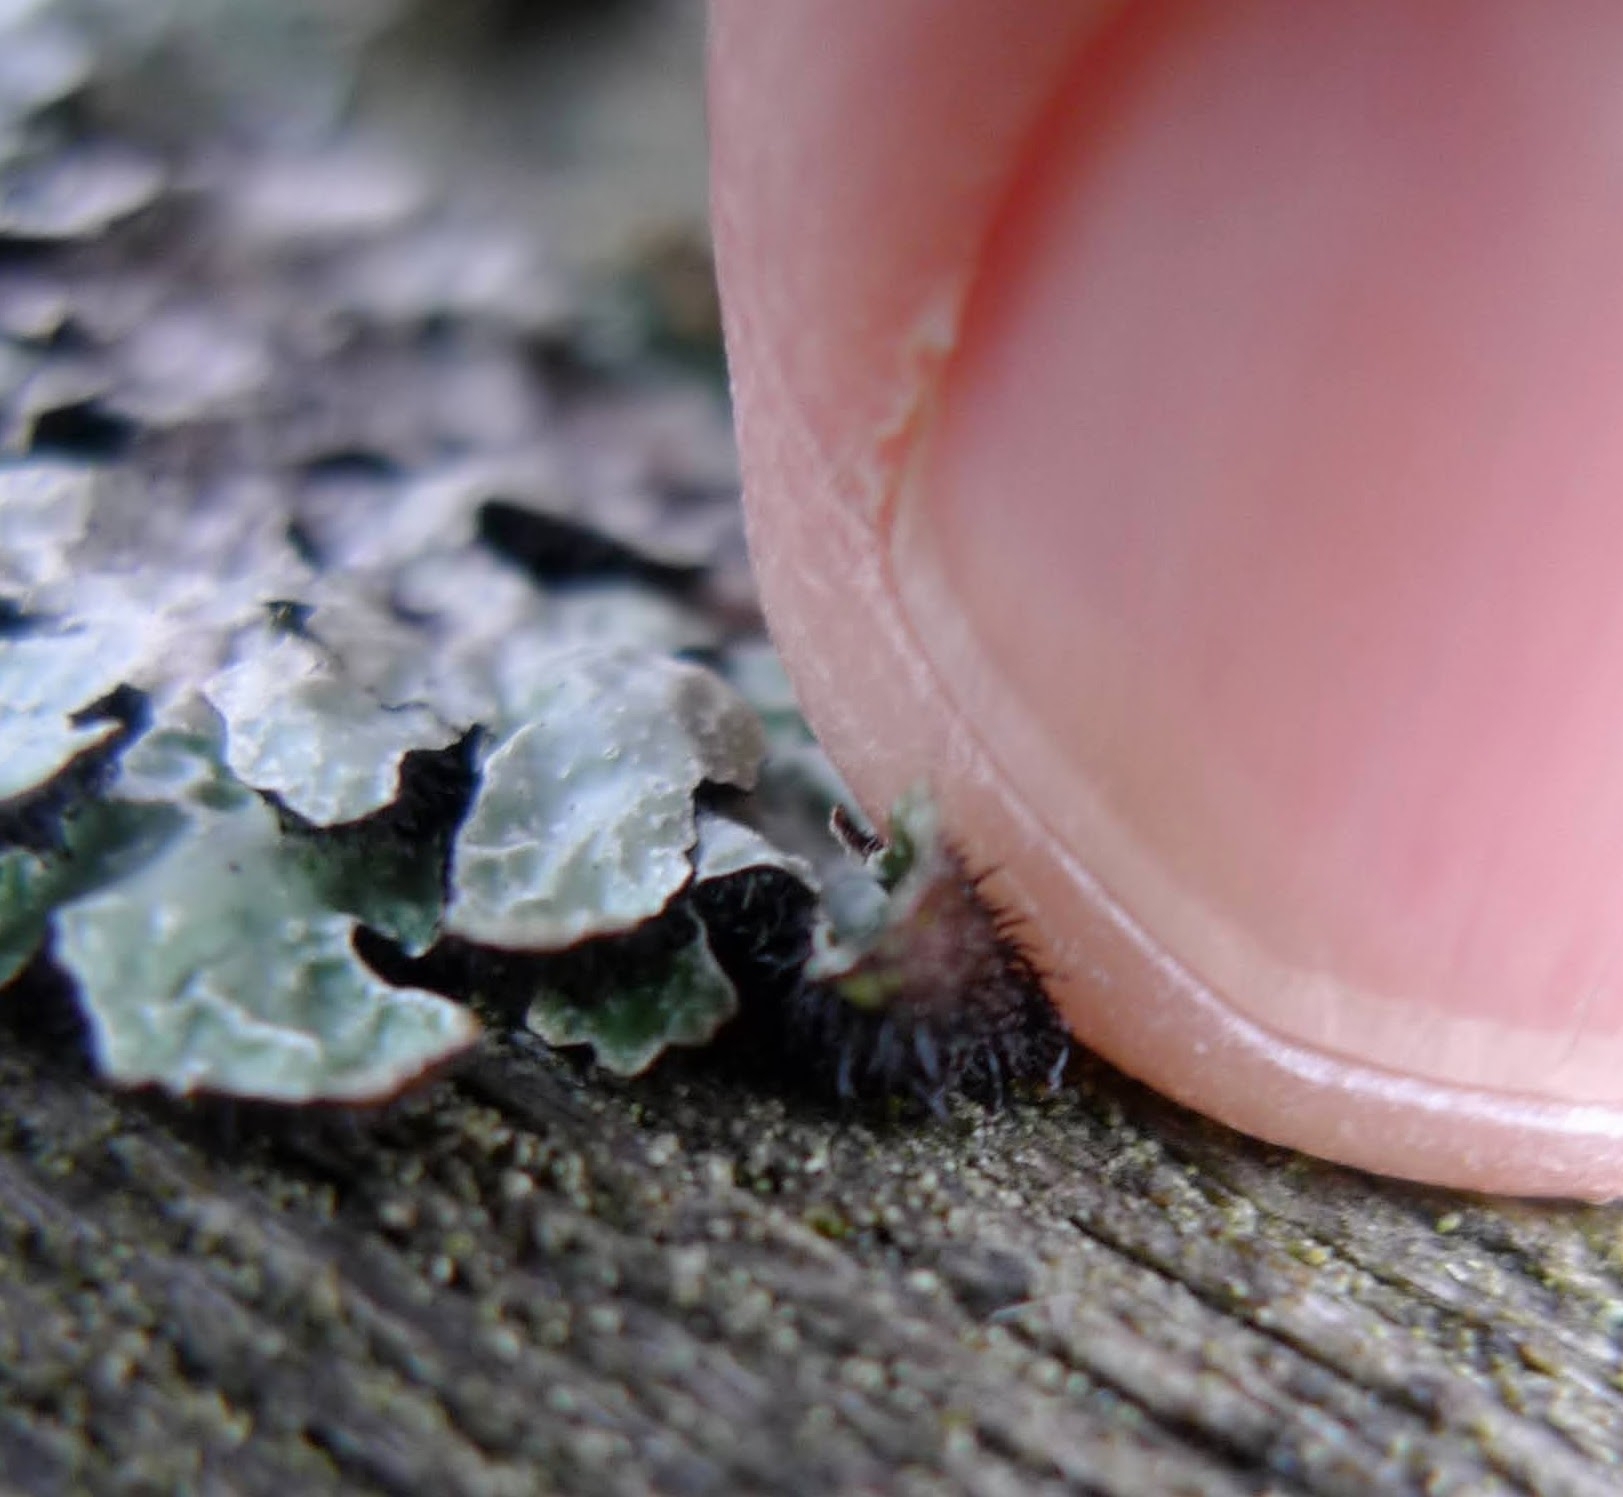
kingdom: Fungi
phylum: Ascomycota
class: Lecanoromycetes
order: Lecanorales
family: Parmeliaceae
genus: Parmelia
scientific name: Parmelia sulcata
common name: Netted shield lichen
